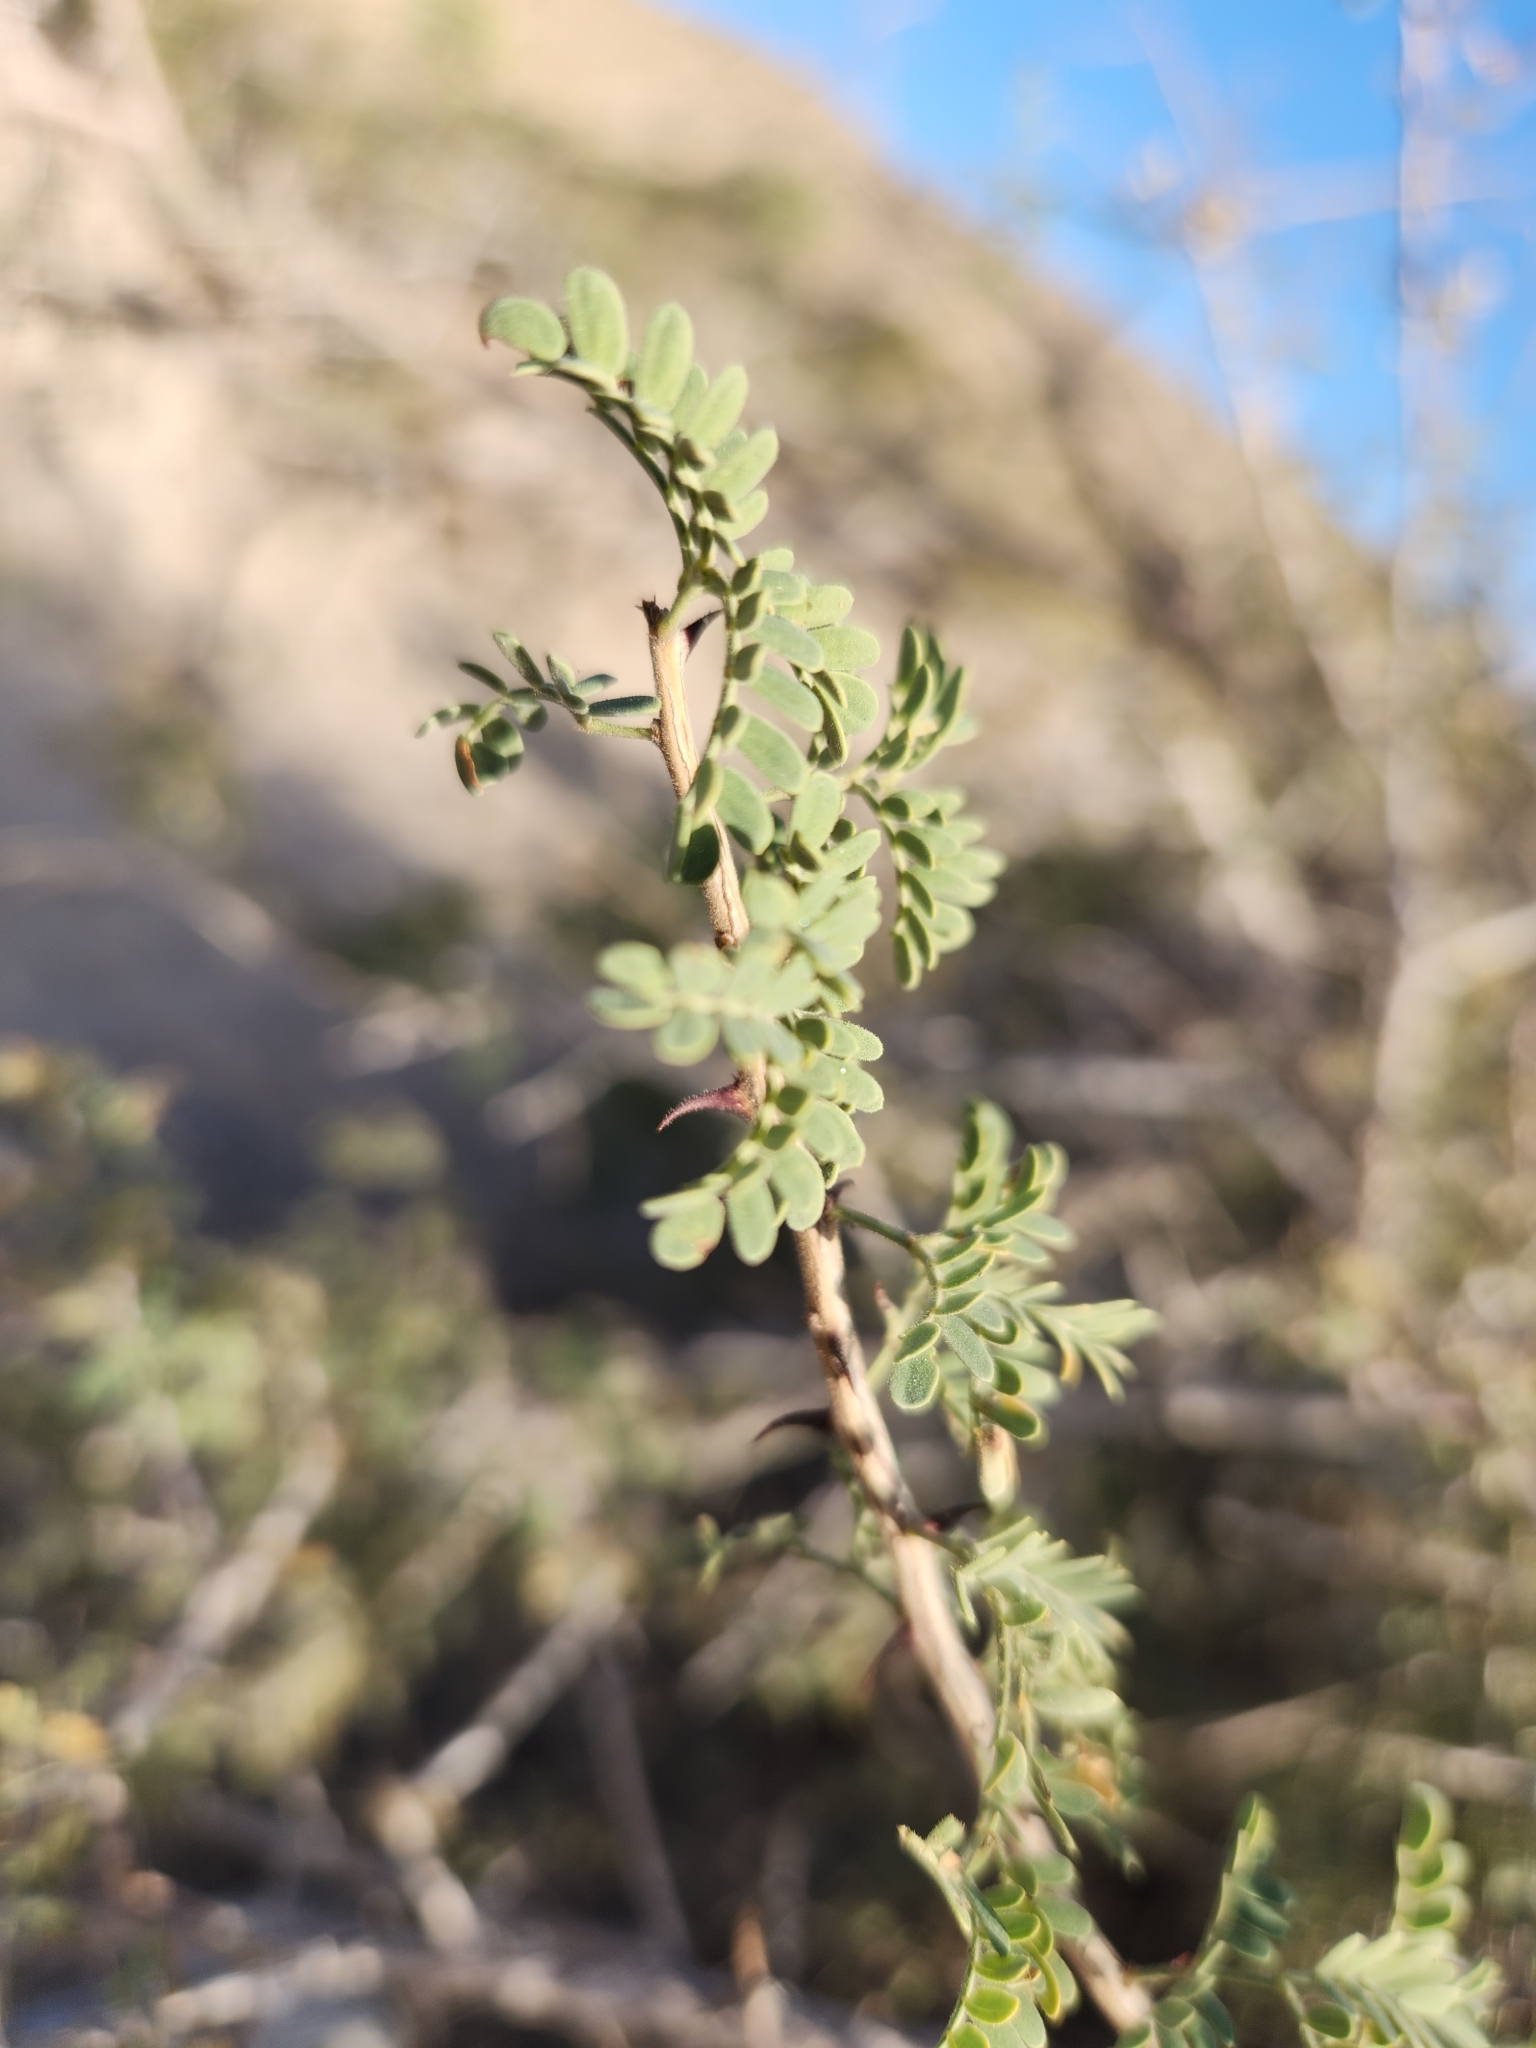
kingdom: Plantae
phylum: Tracheophyta
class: Magnoliopsida
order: Fabales
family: Fabaceae
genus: Senegalia
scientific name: Senegalia greggii
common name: Texas-mimosa
